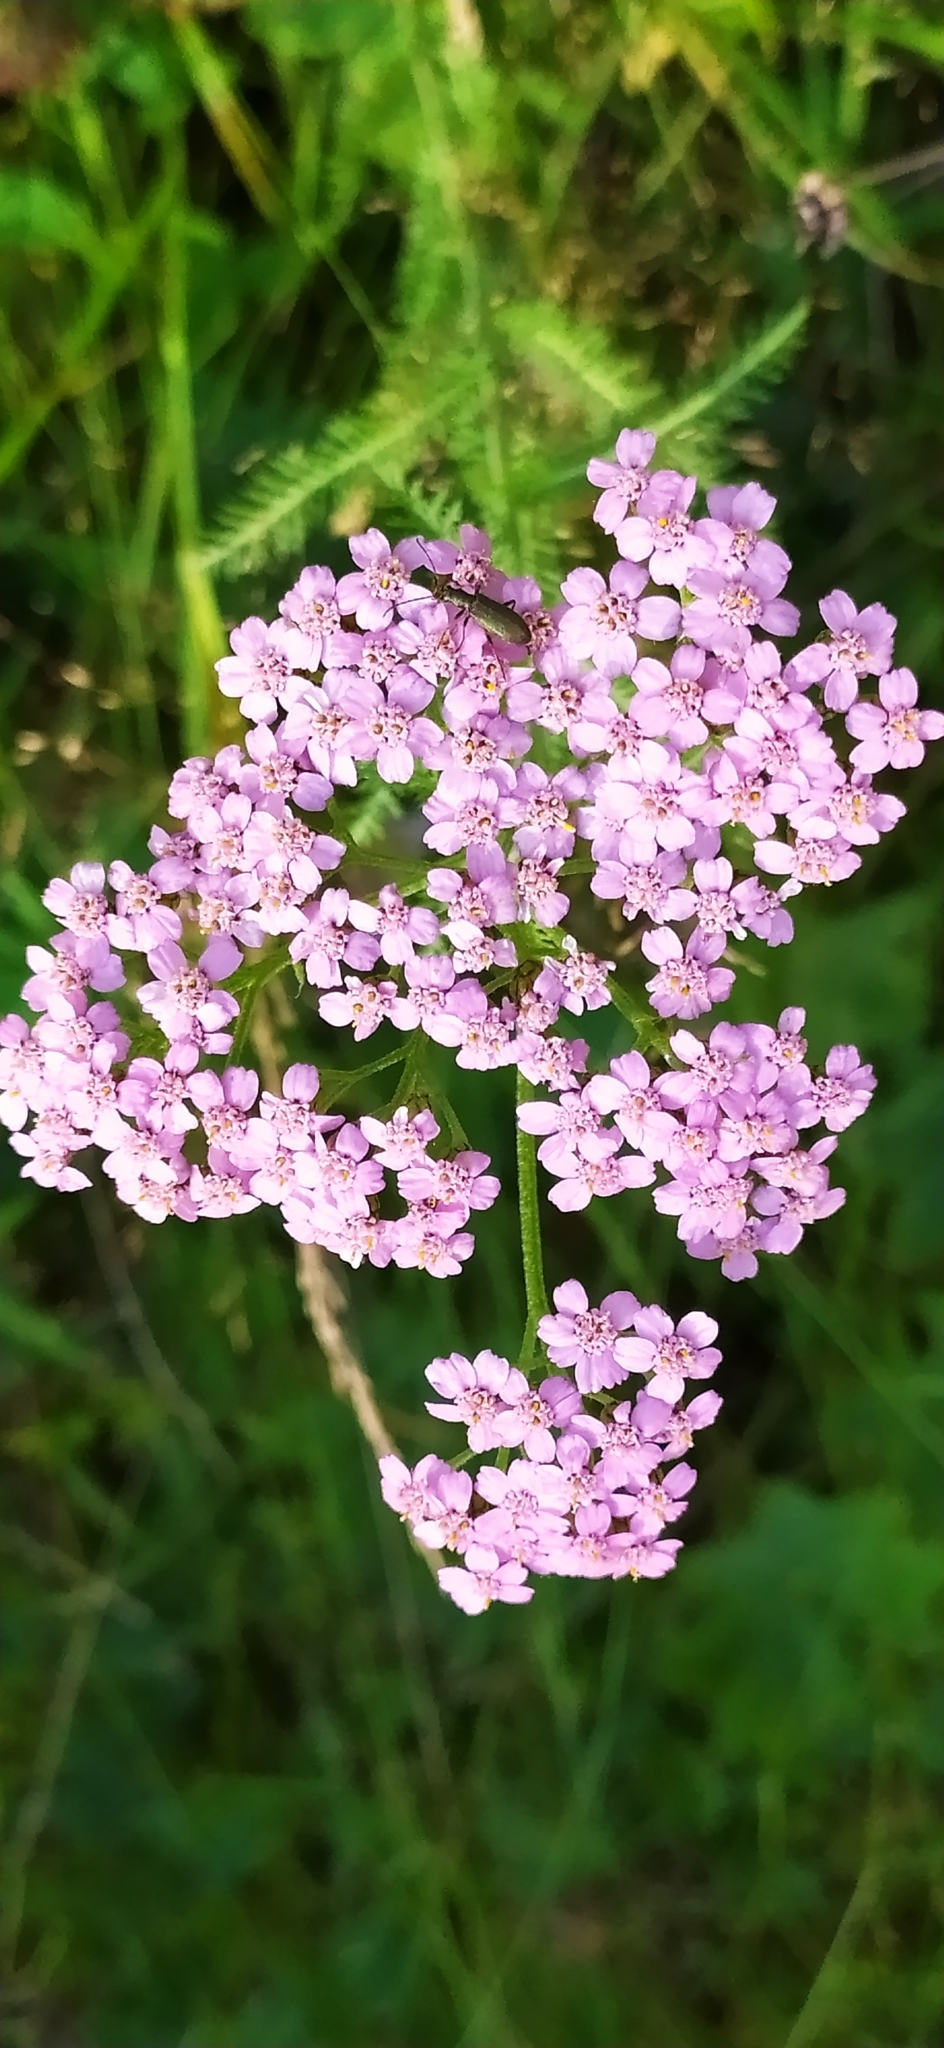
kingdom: Plantae
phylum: Tracheophyta
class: Magnoliopsida
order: Asterales
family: Asteraceae
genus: Achillea
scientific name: Achillea asiatica
